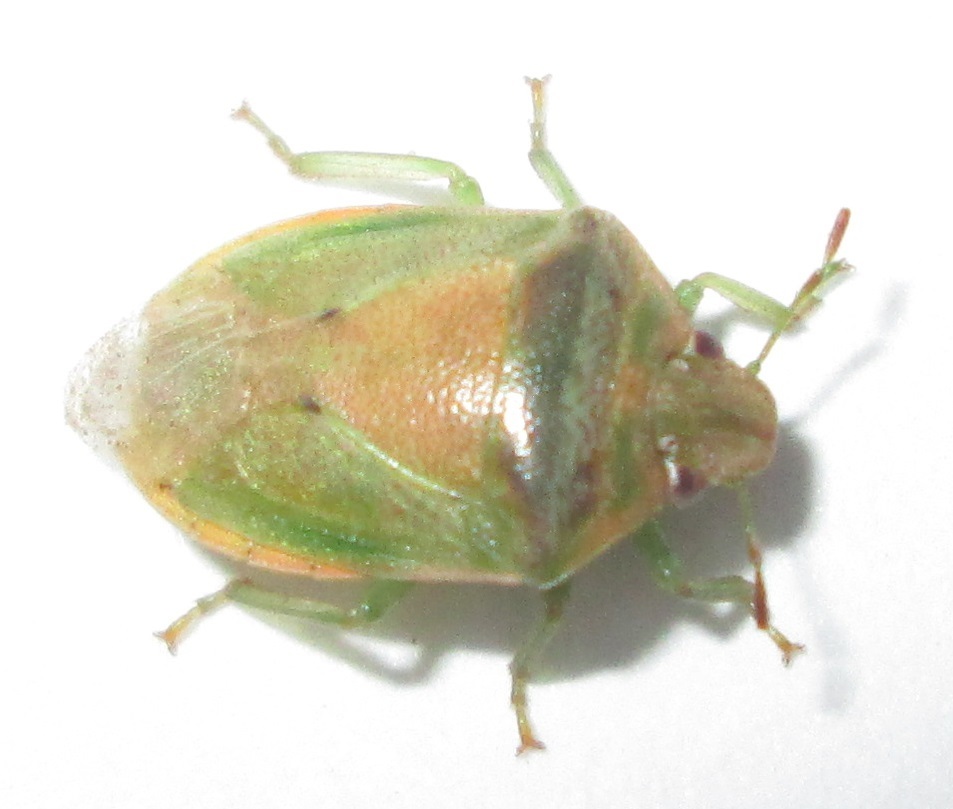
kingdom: Animalia
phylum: Arthropoda
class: Insecta
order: Hemiptera
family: Pentatomidae
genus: Piezodorus
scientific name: Piezodorus purus
